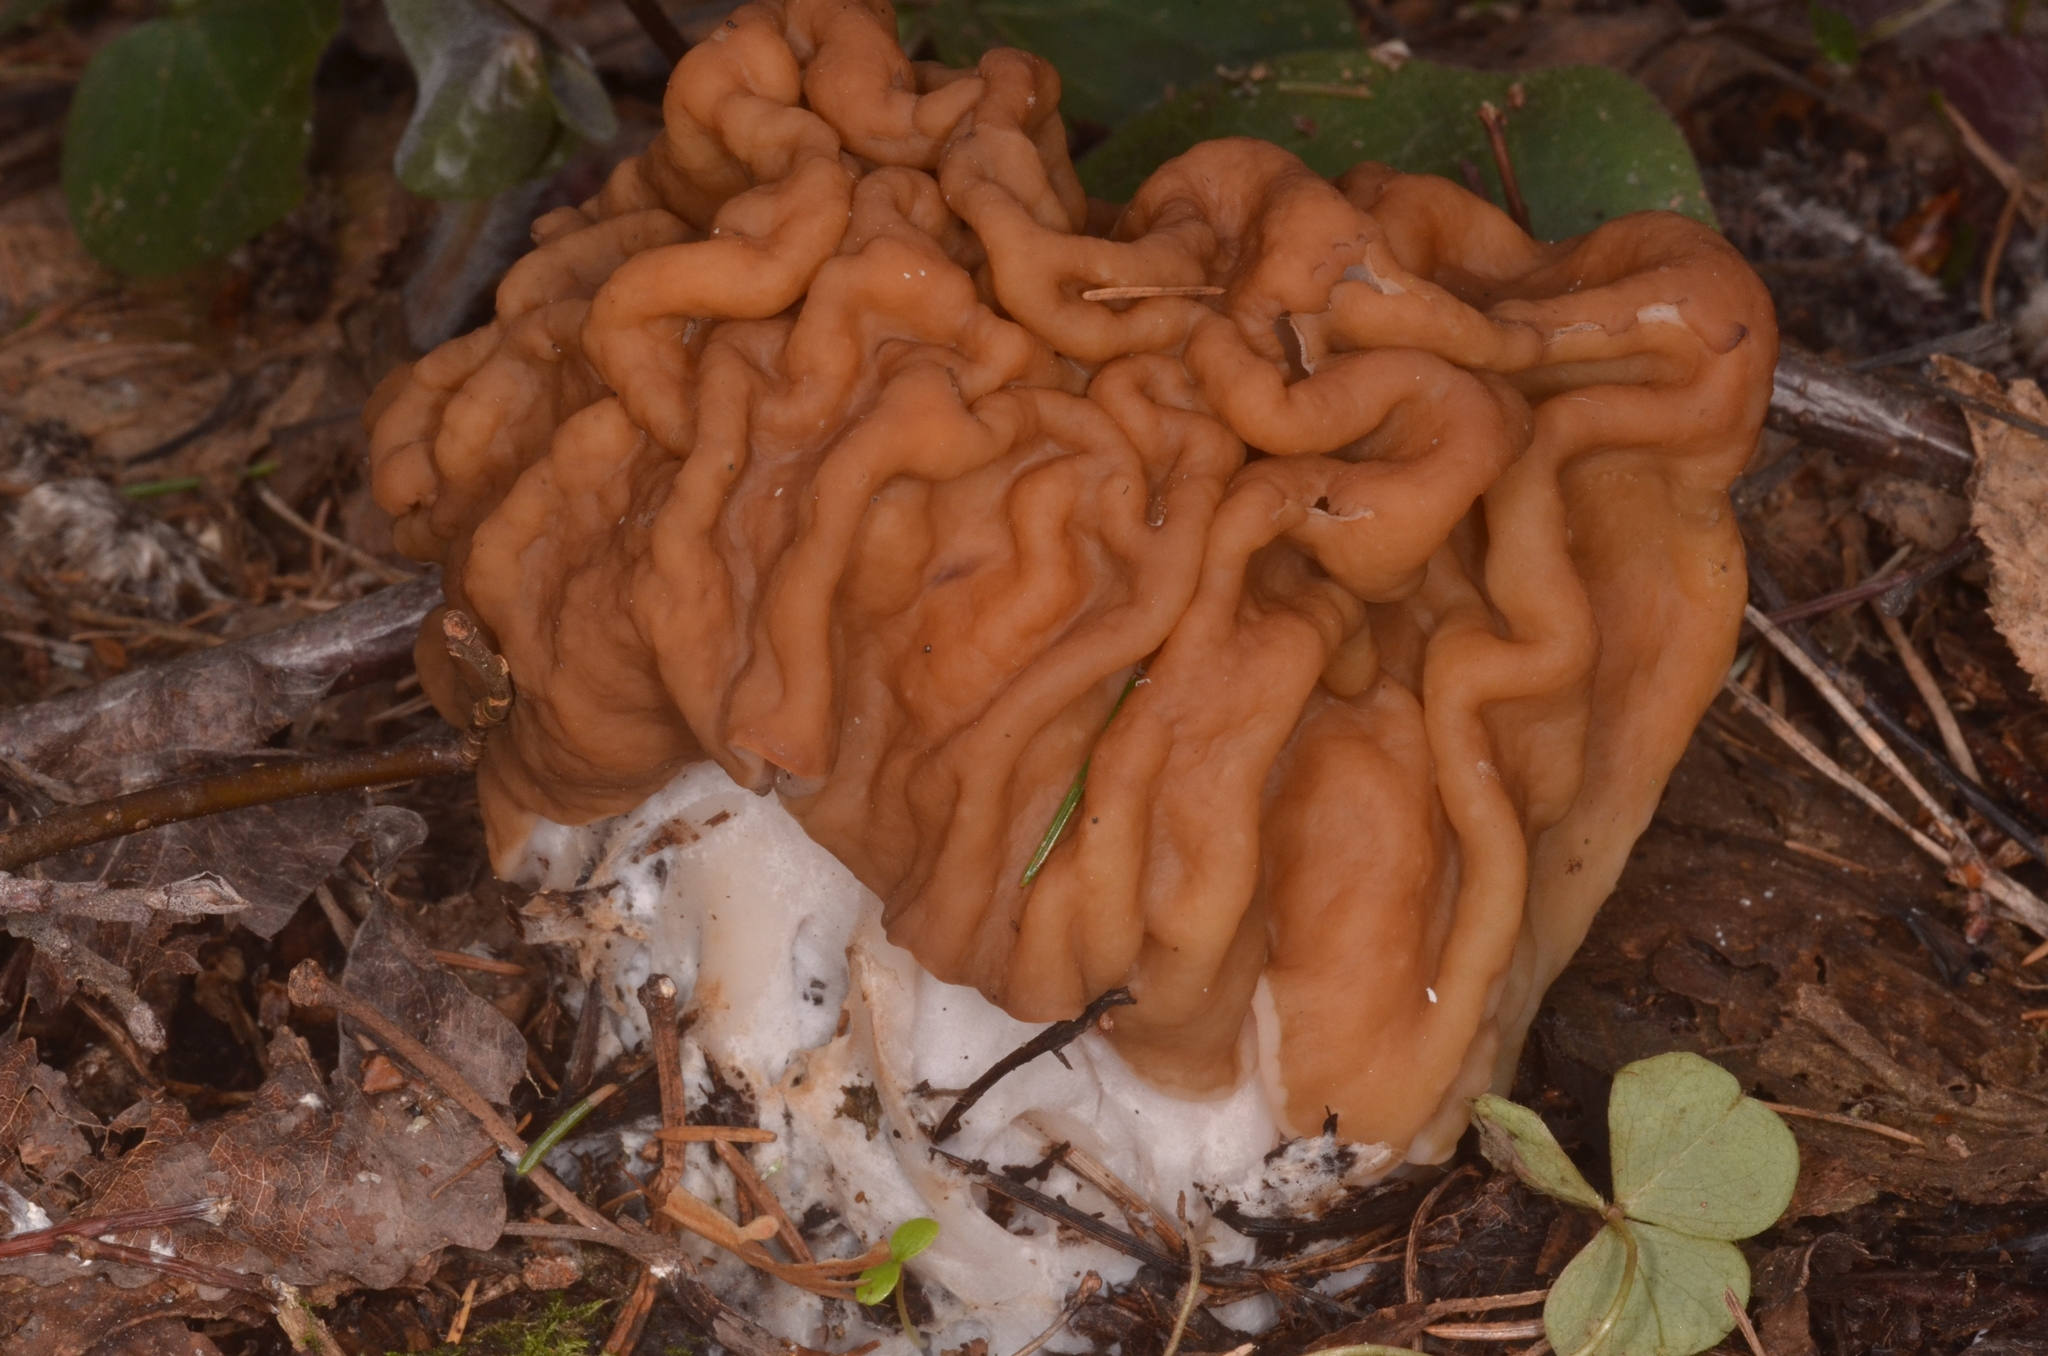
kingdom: Fungi
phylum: Ascomycota
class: Pezizomycetes
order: Pezizales
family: Discinaceae
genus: Gyromitra
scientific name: Gyromitra gigas
